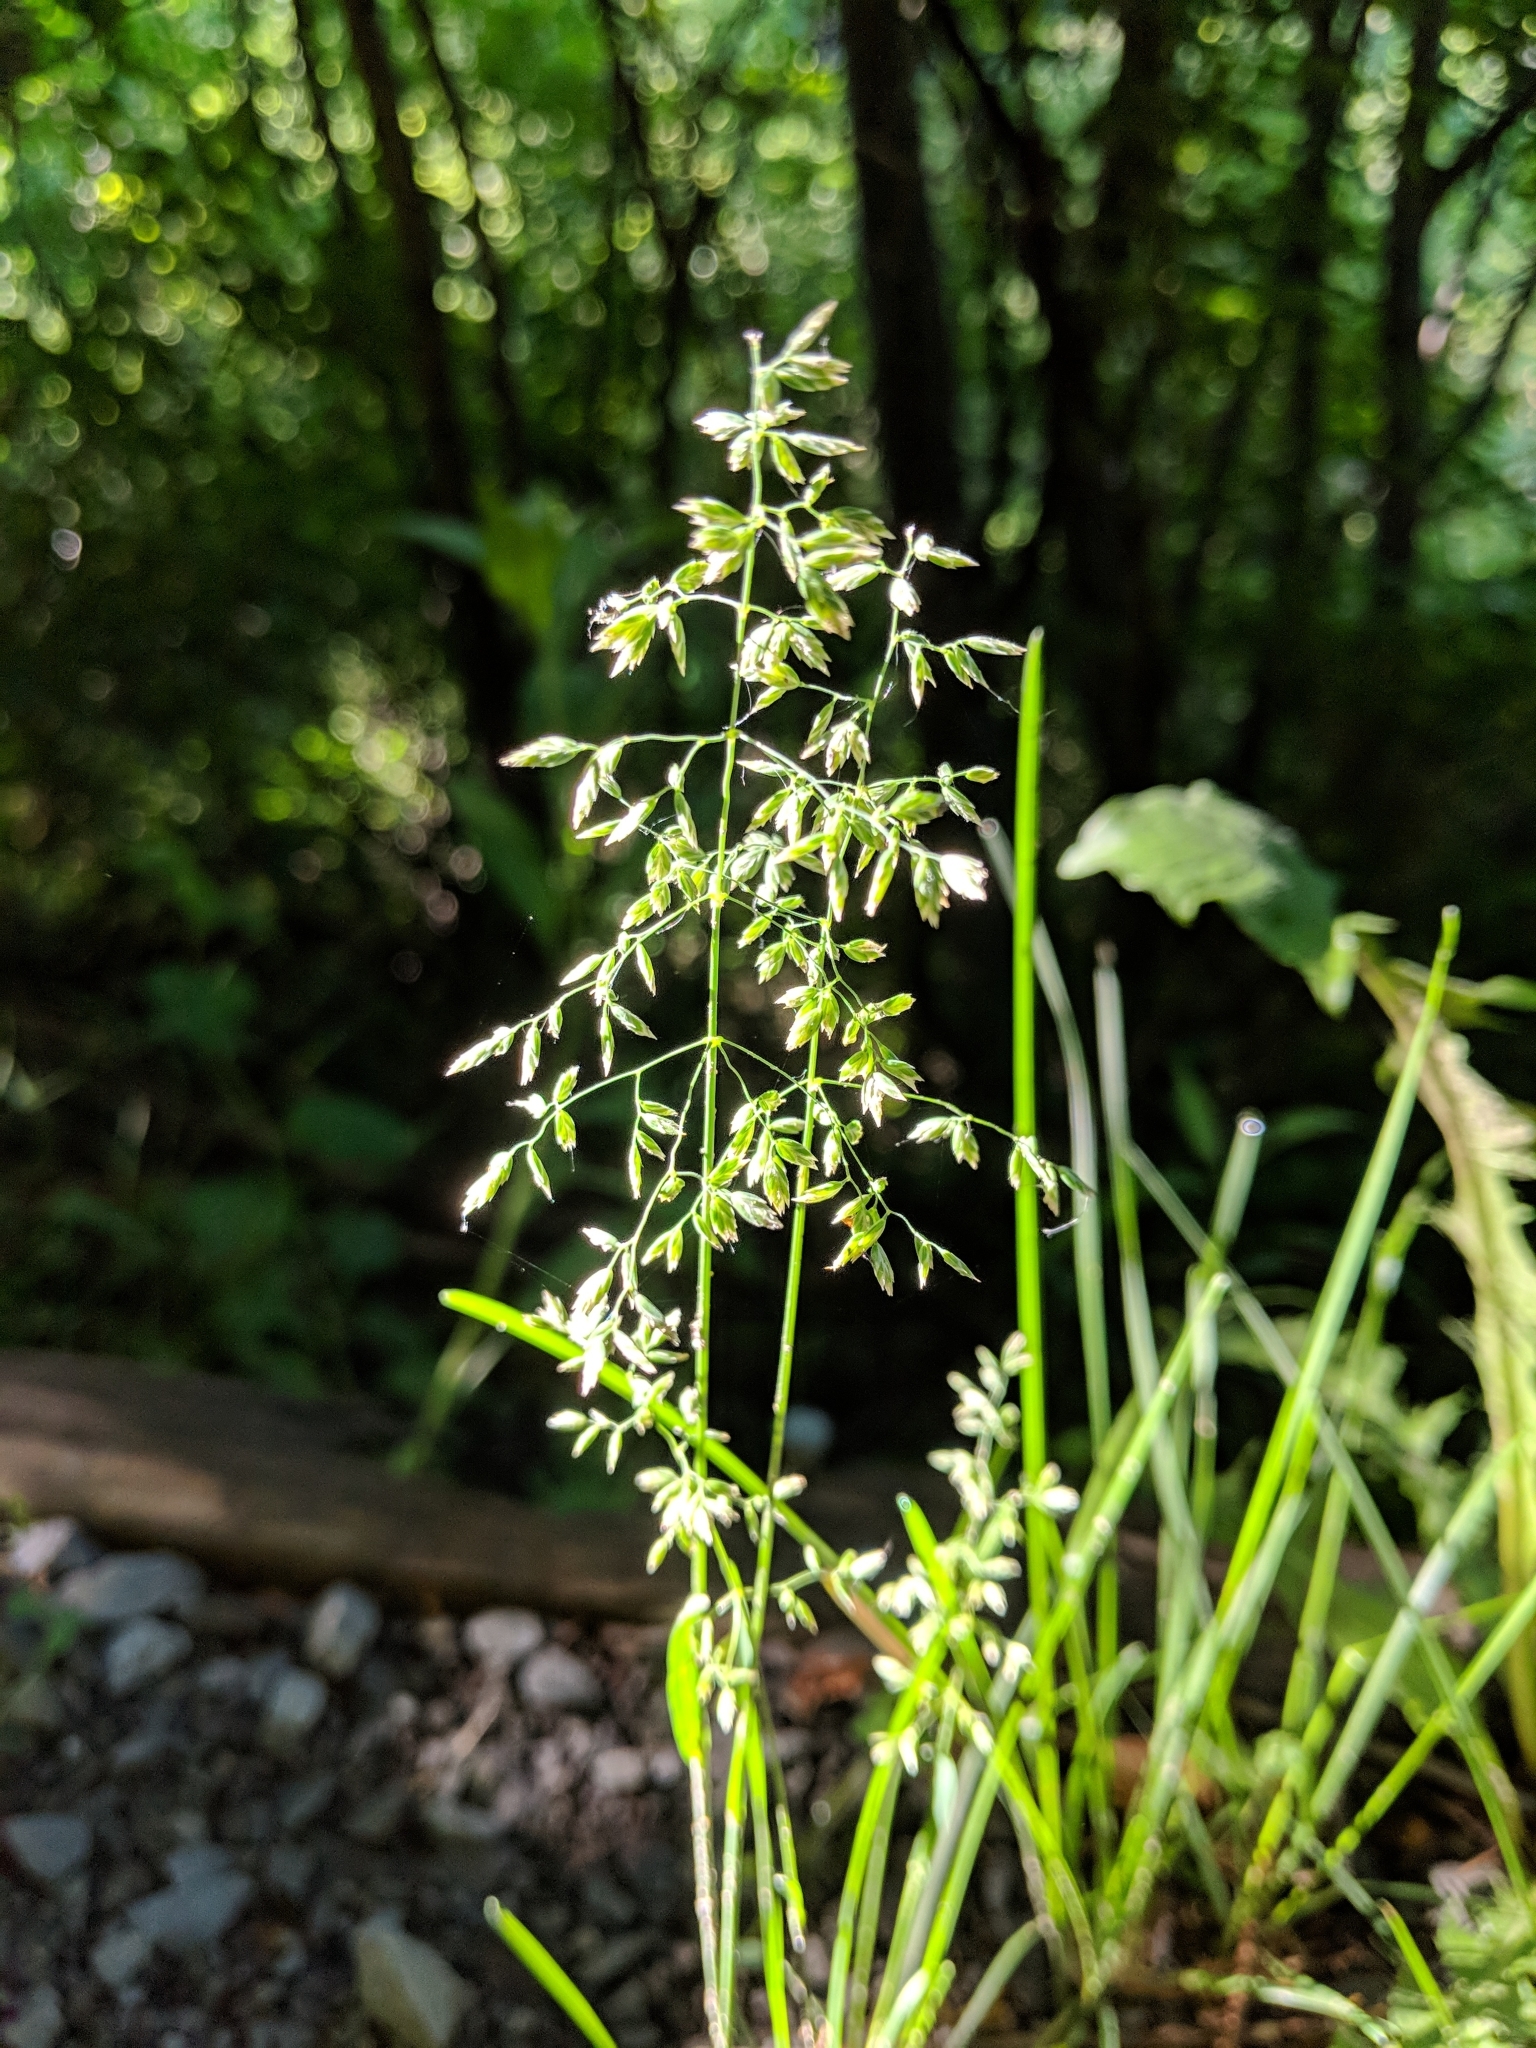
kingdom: Plantae
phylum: Tracheophyta
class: Liliopsida
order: Poales
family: Poaceae
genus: Poa
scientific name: Poa pratensis
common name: Kentucky bluegrass
